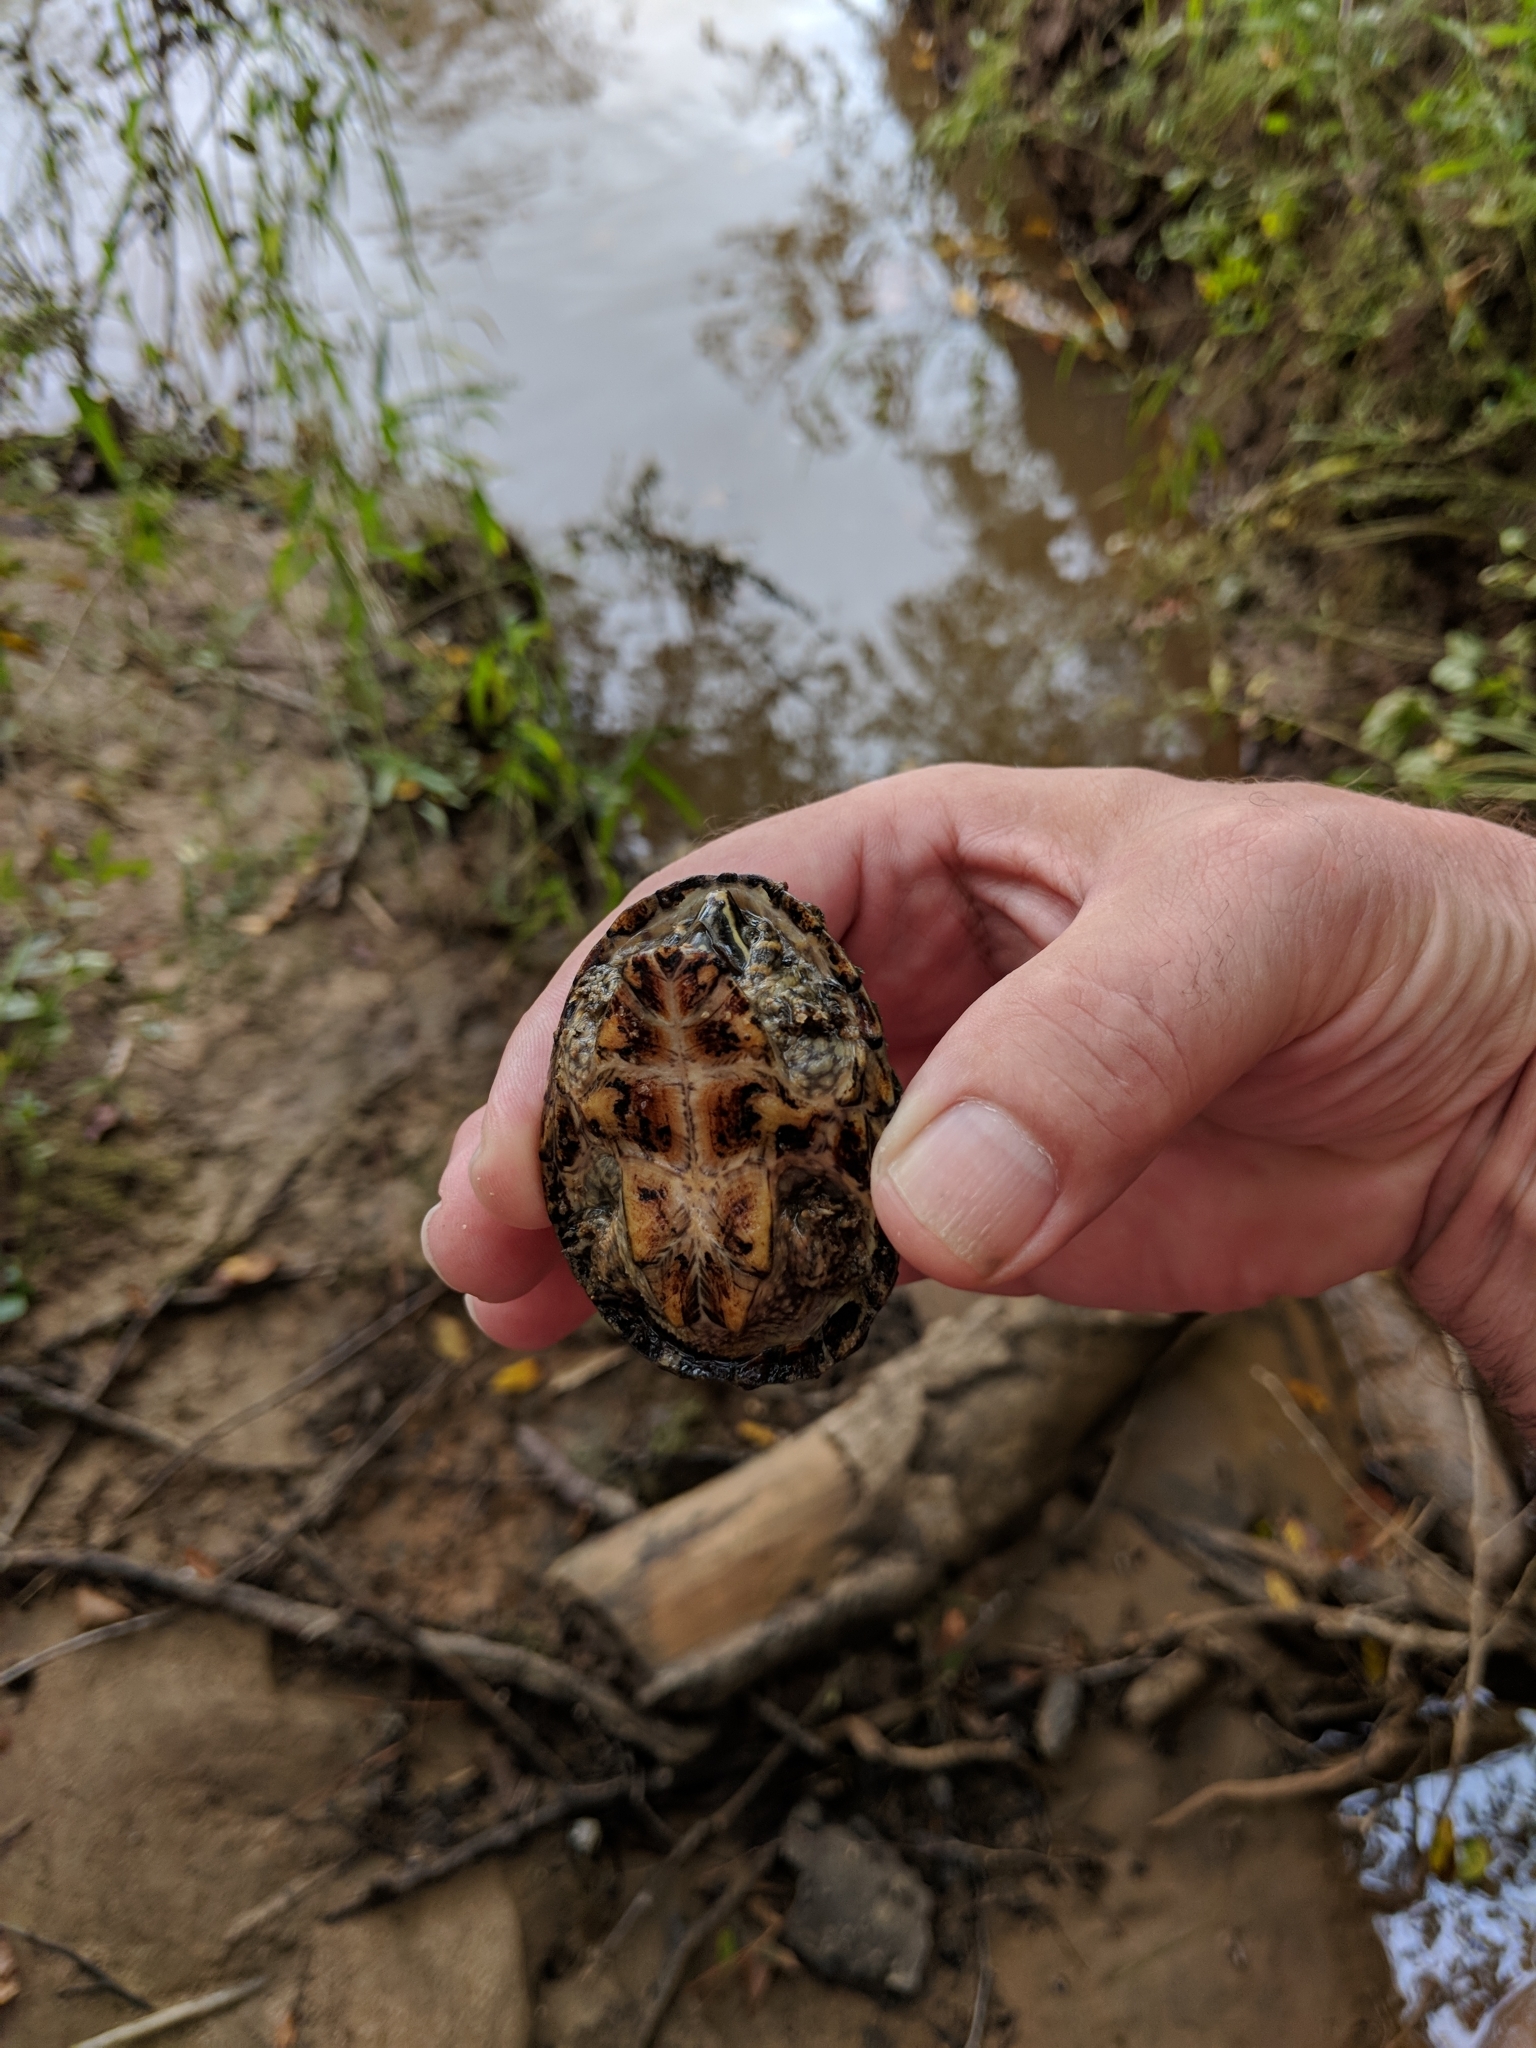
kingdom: Animalia
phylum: Chordata
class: Testudines
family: Kinosternidae
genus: Sternotherus
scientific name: Sternotherus odoratus
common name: Common musk turtle
